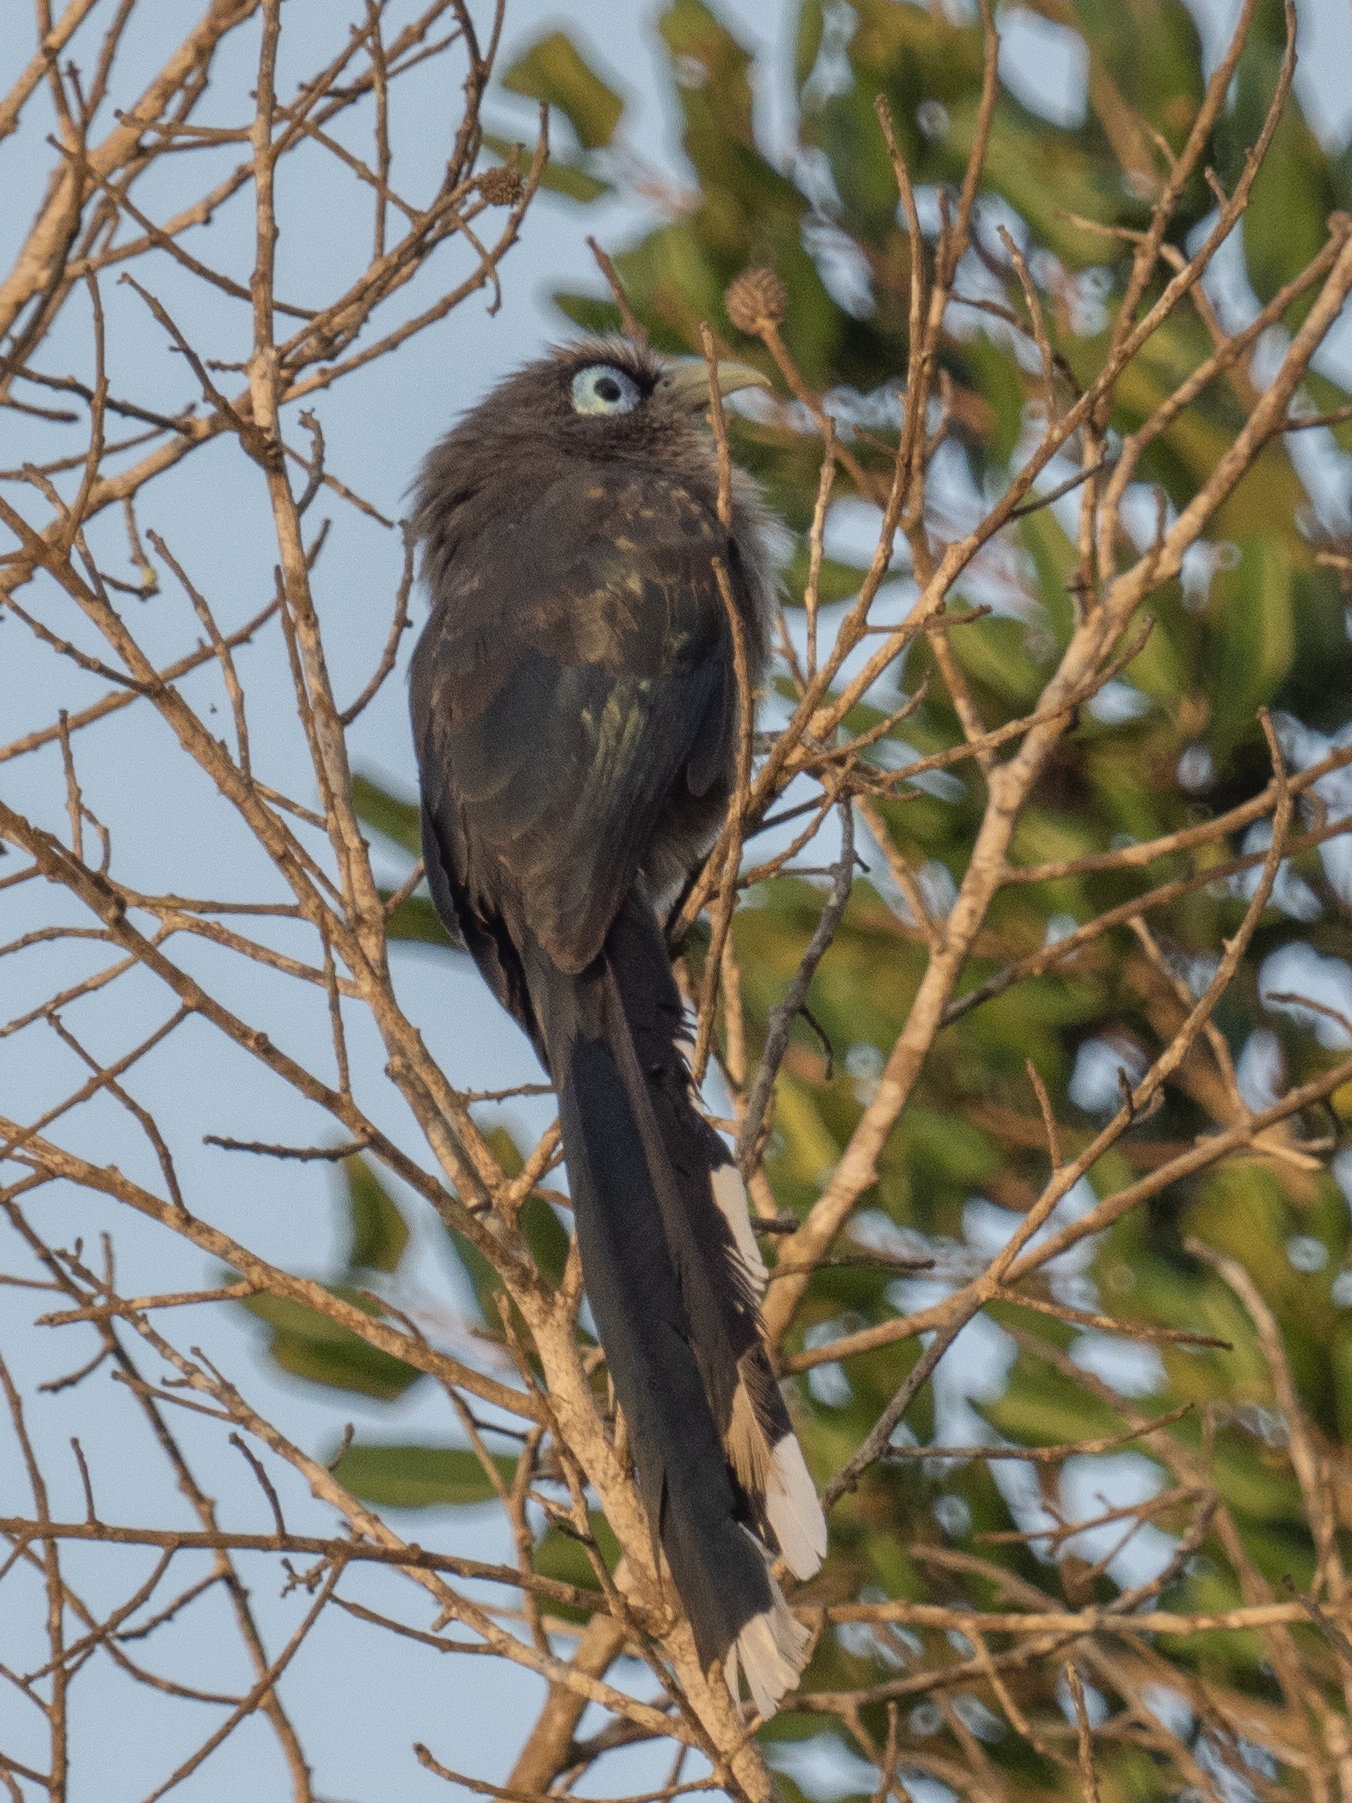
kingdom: Animalia
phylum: Chordata
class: Aves
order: Cuculiformes
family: Cuculidae
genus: Rhopodytes
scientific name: Rhopodytes viridirostris
